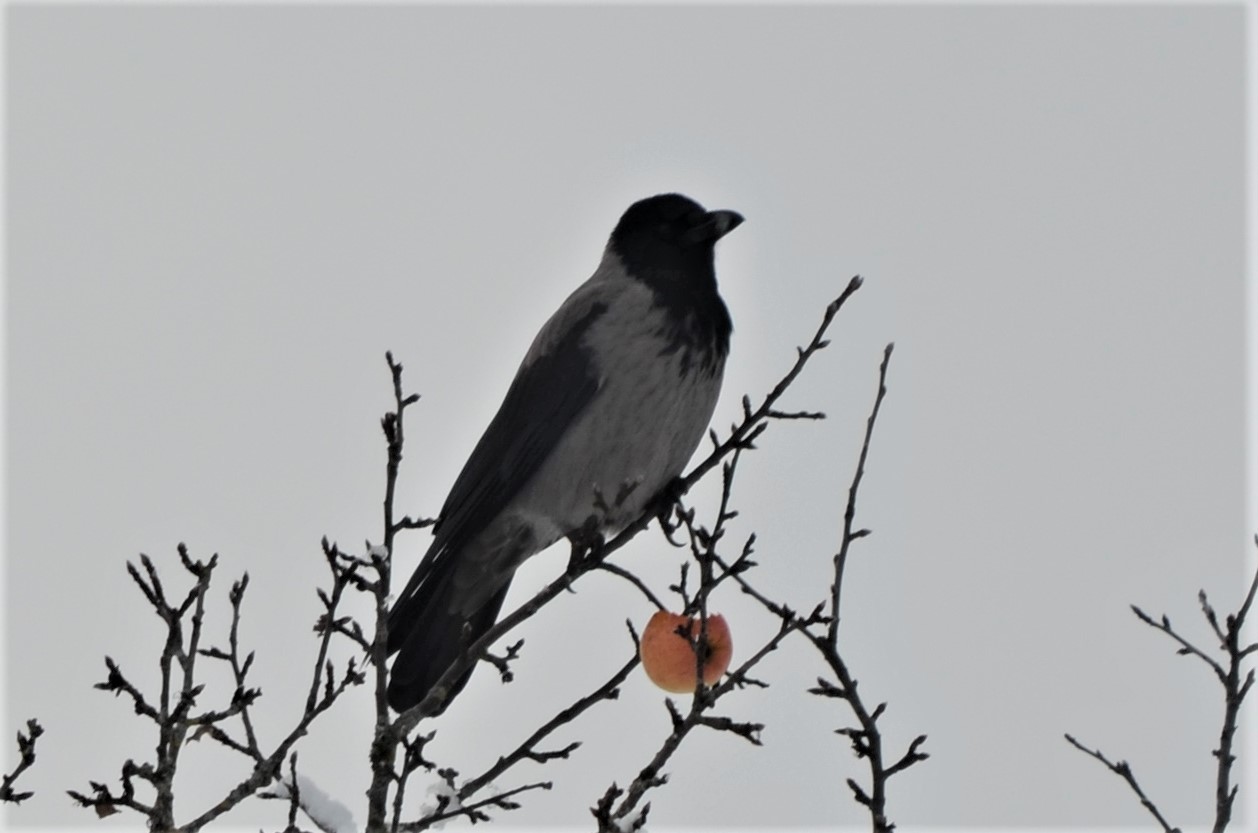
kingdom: Animalia
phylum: Chordata
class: Aves
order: Passeriformes
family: Corvidae
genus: Corvus
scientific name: Corvus cornix
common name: Hooded crow
